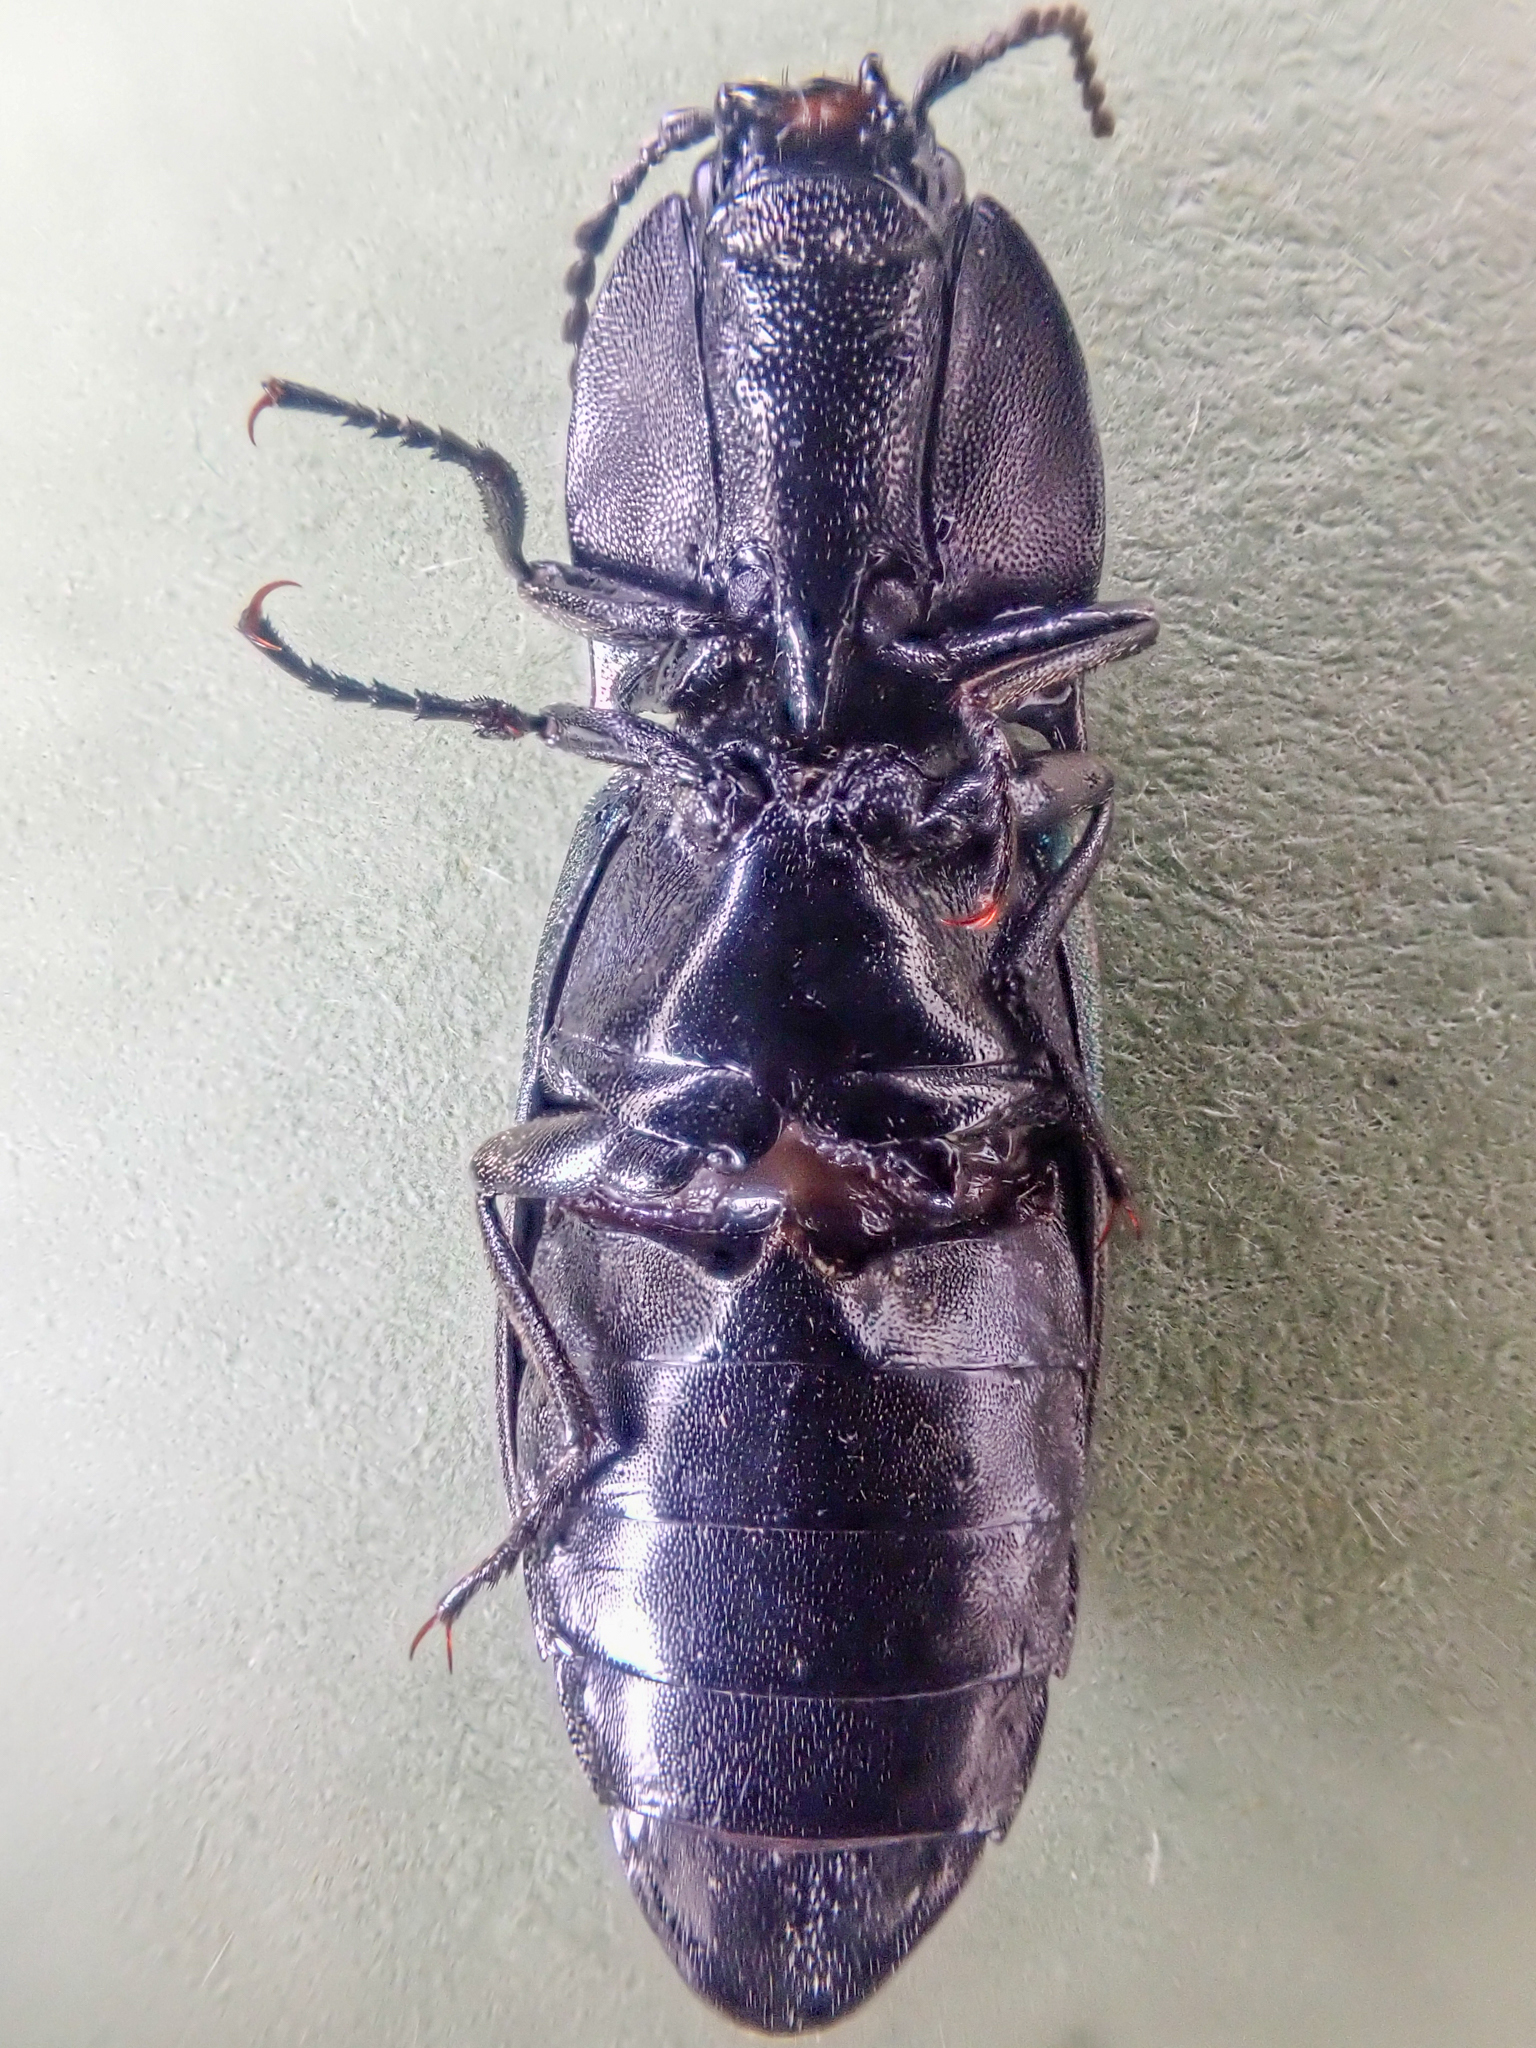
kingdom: Animalia
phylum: Arthropoda
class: Insecta
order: Coleoptera
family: Elateridae
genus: Selatosomus
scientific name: Selatosomus semimetallicus
